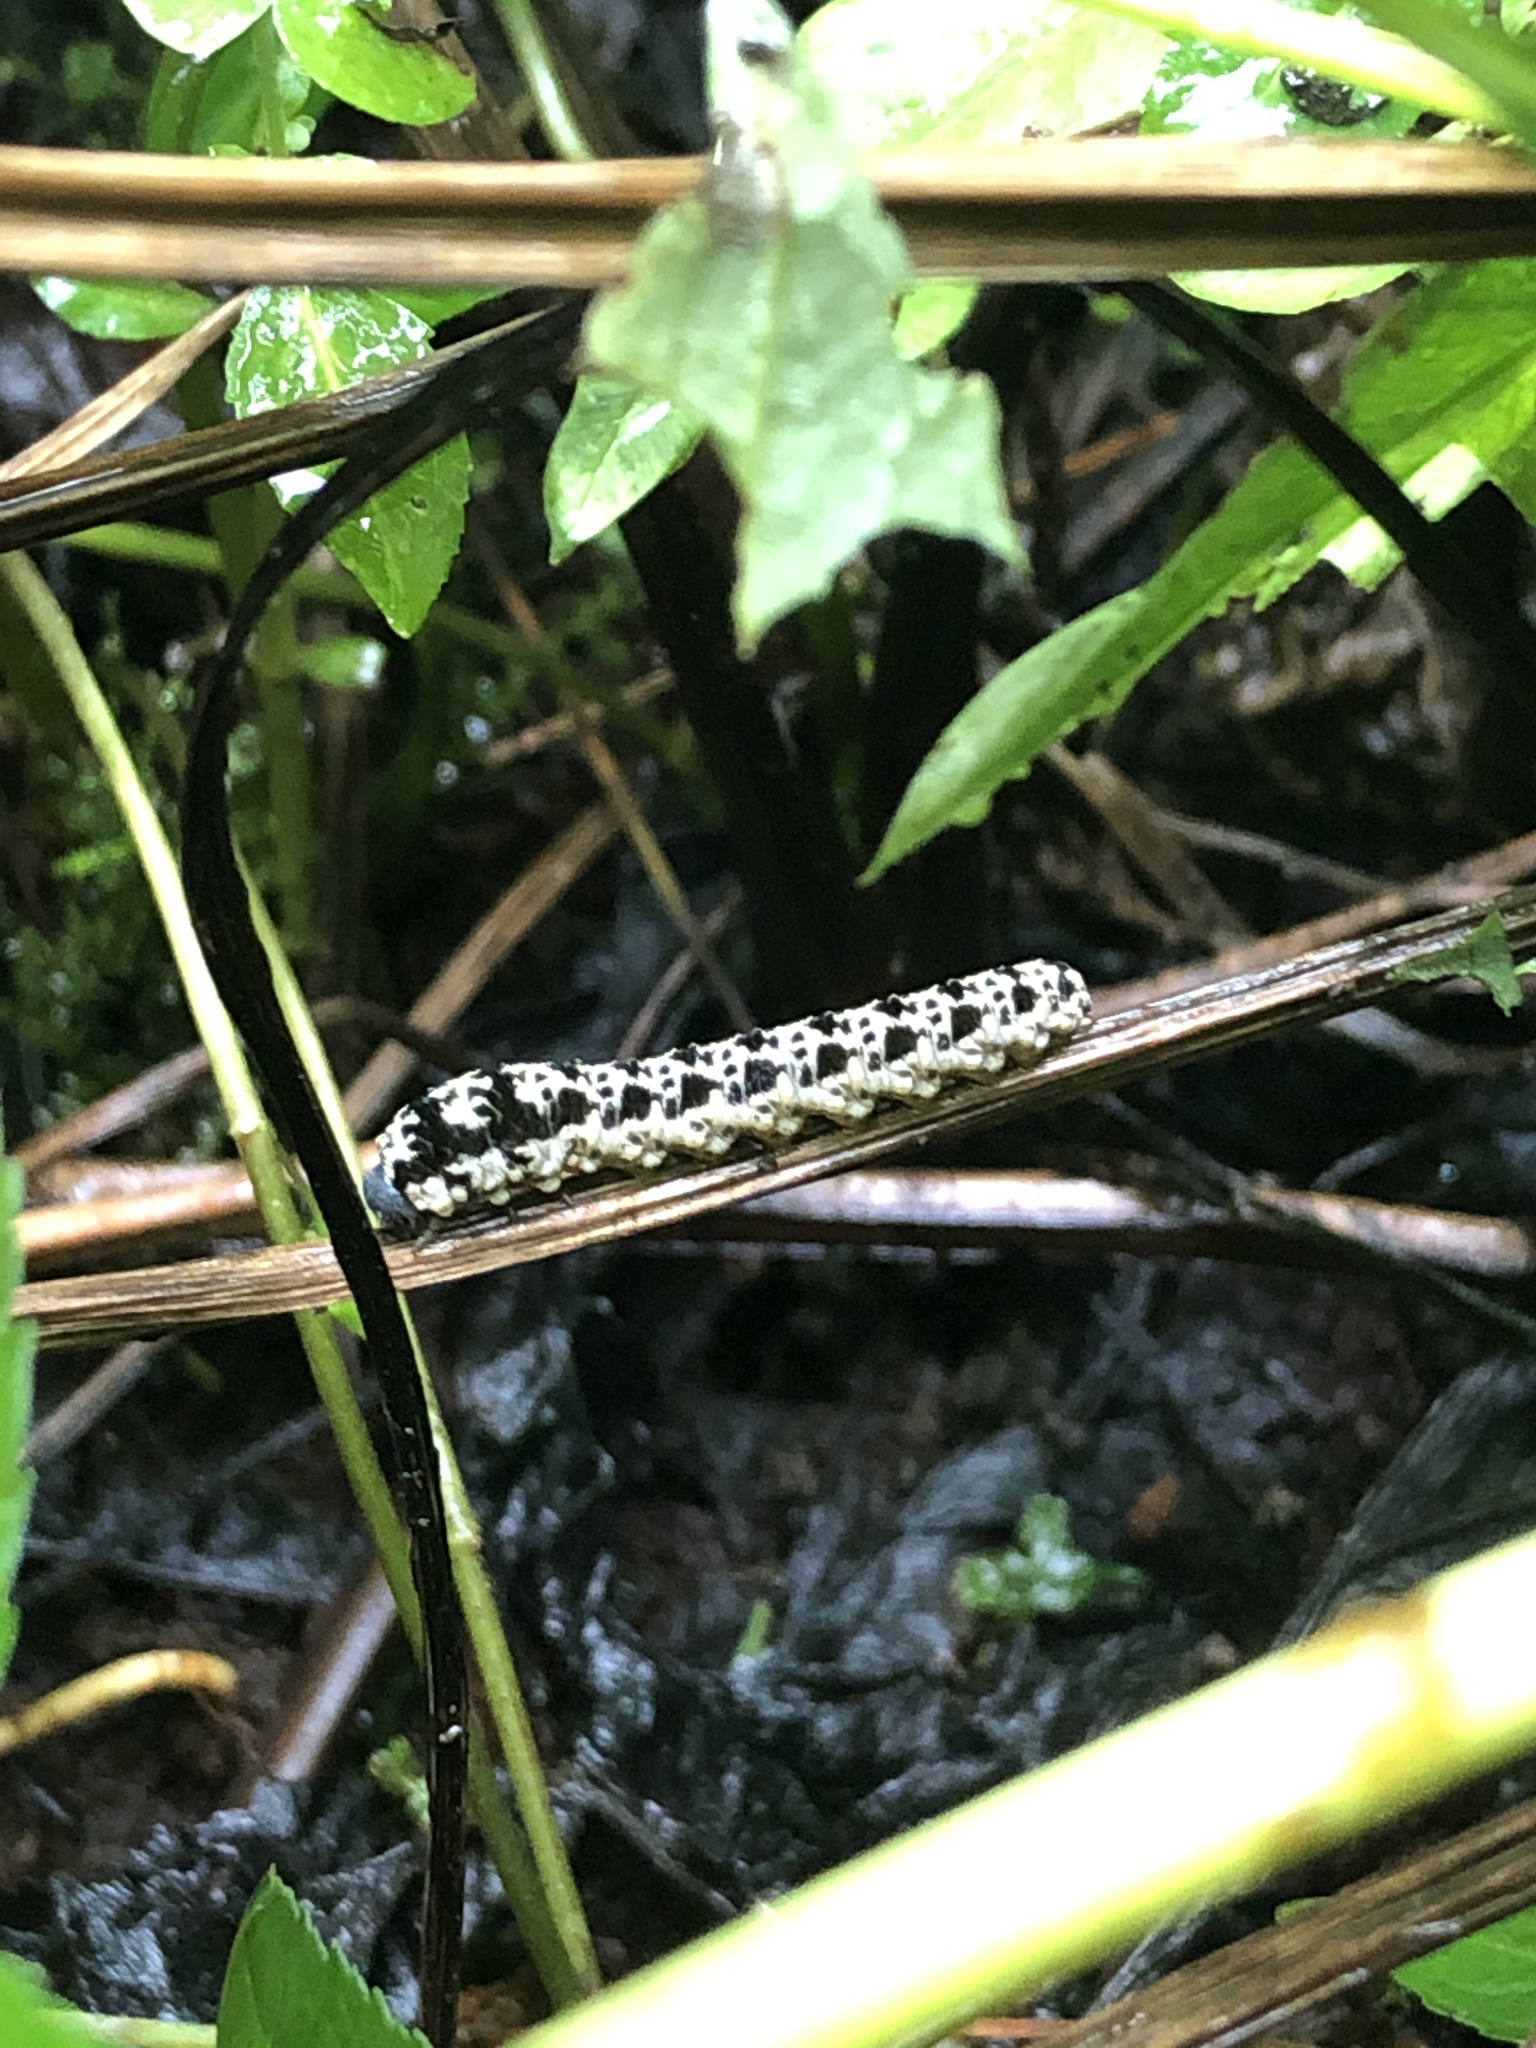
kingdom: Animalia
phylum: Arthropoda
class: Insecta
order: Hymenoptera
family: Tenthredinidae
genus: Tenthredo
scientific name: Tenthredo
